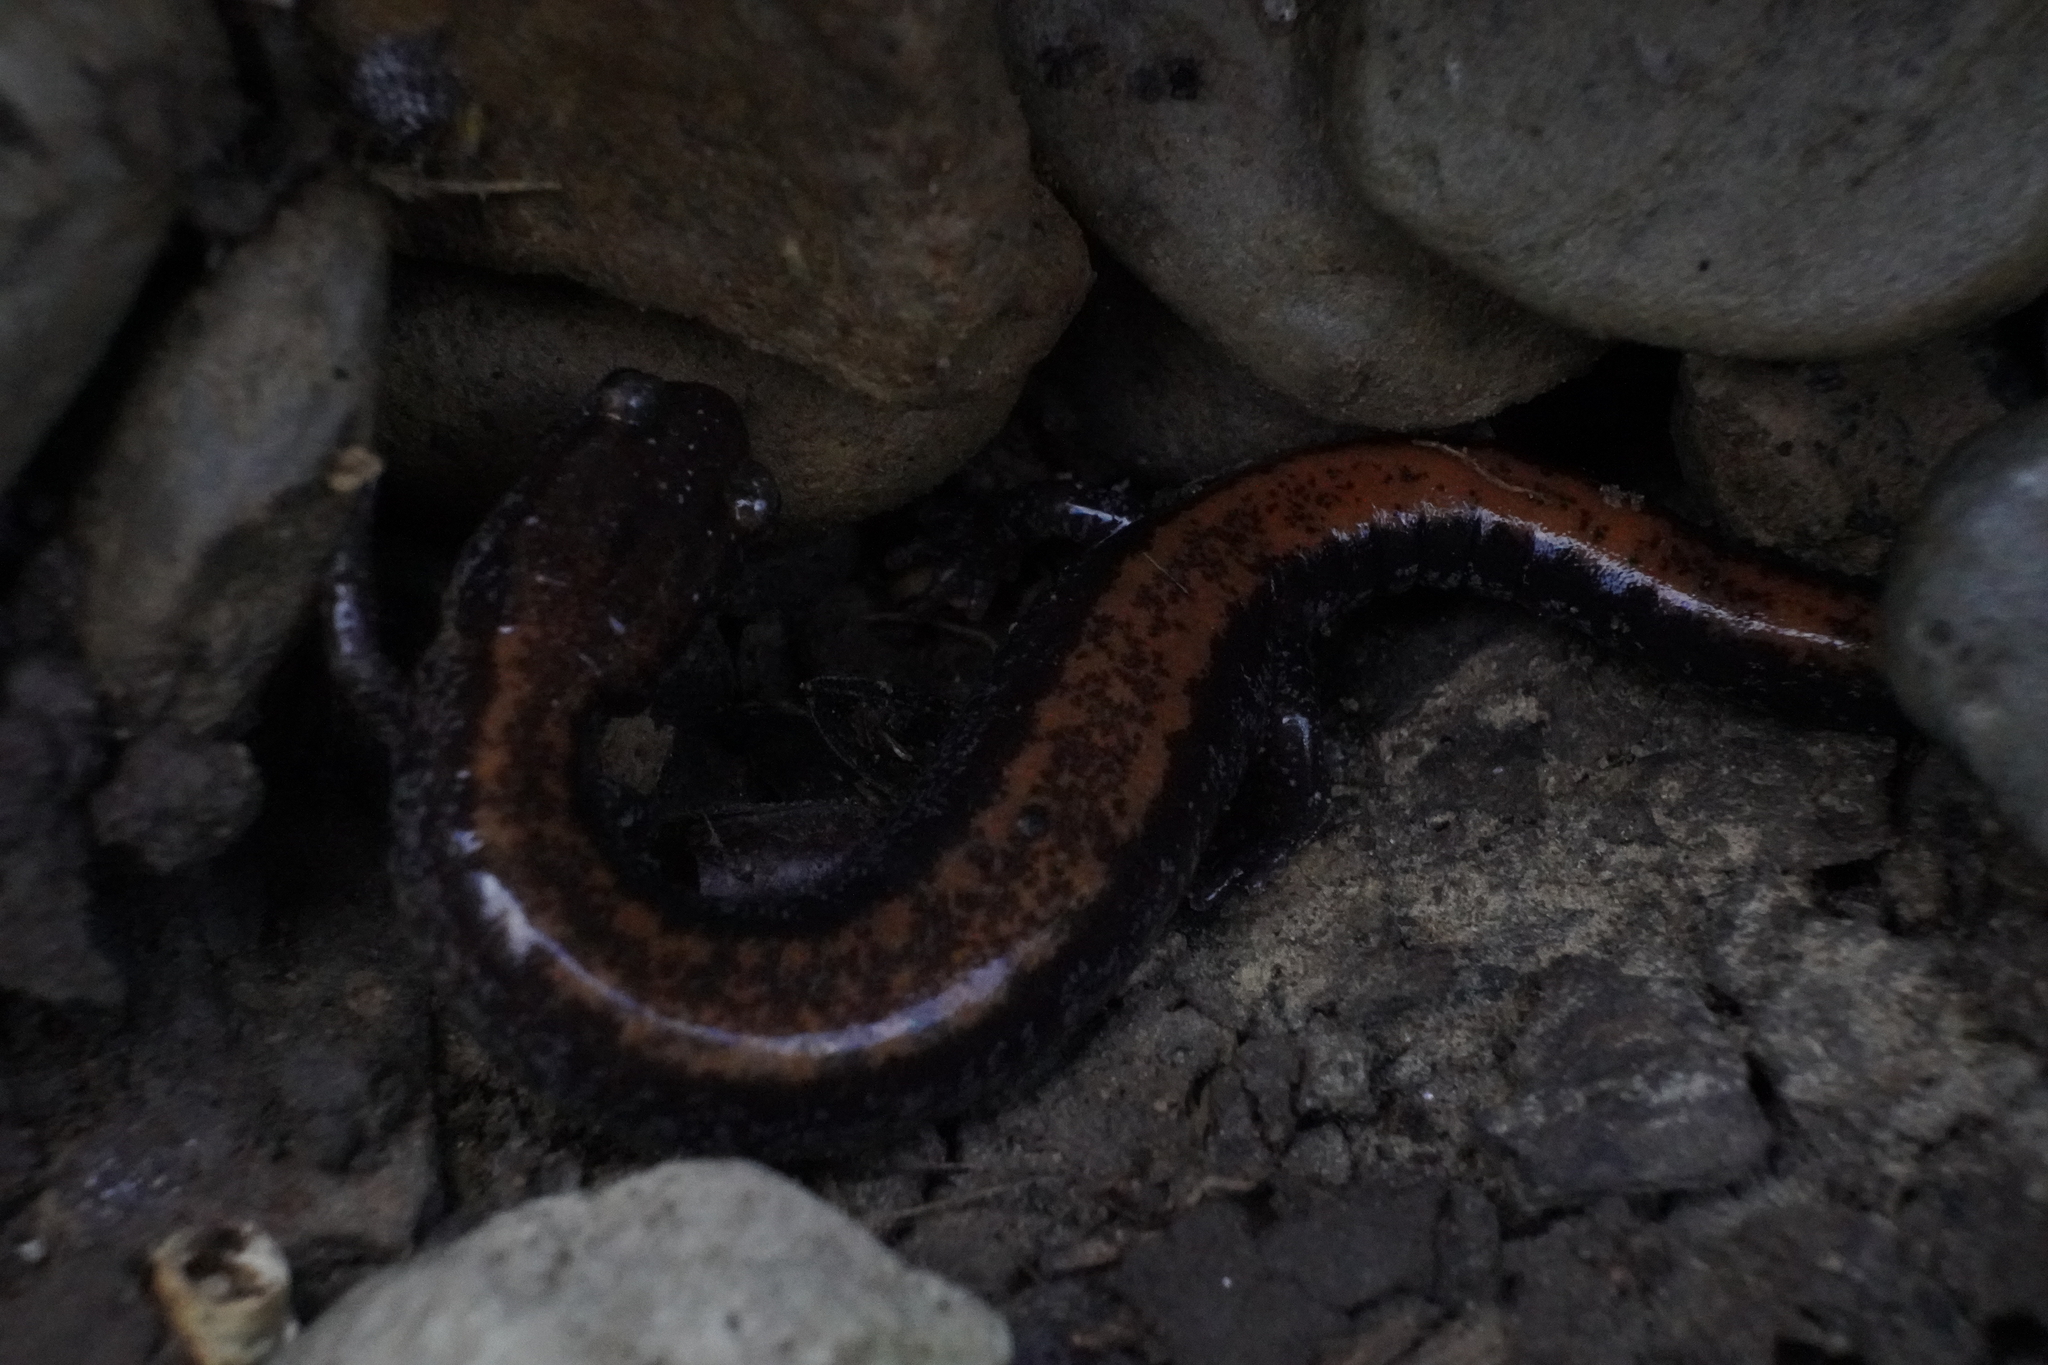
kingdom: Animalia
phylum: Chordata
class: Amphibia
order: Caudata
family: Plethodontidae
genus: Plethodon
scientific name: Plethodon cinereus
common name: Redback salamander
